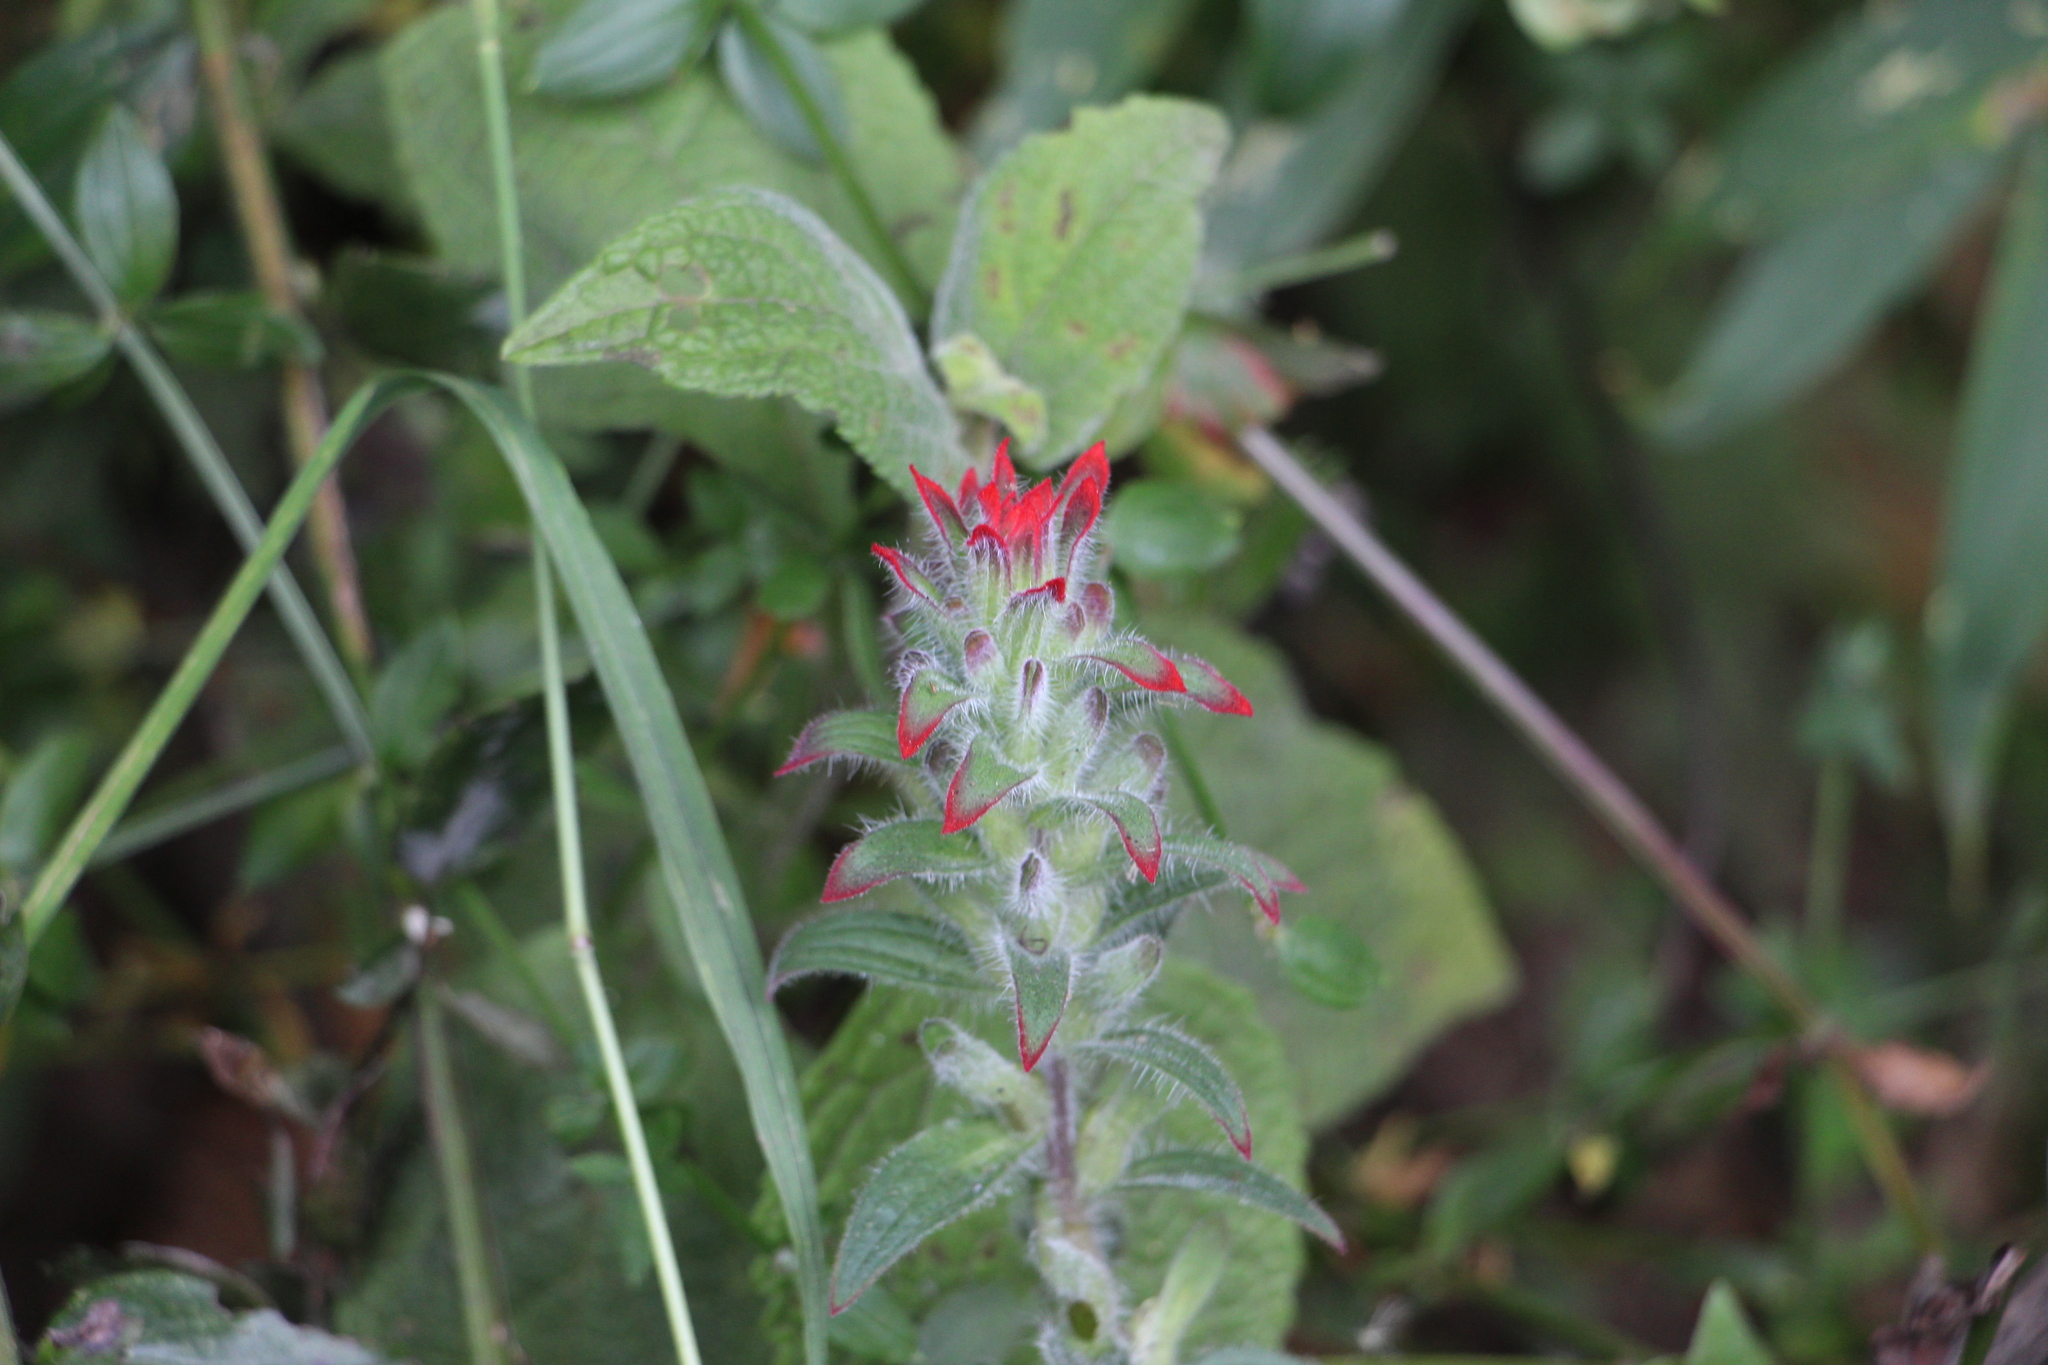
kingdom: Plantae
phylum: Tracheophyta
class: Magnoliopsida
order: Lamiales
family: Orobanchaceae
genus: Castilleja
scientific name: Castilleja arvensis
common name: Indian paintbrush
